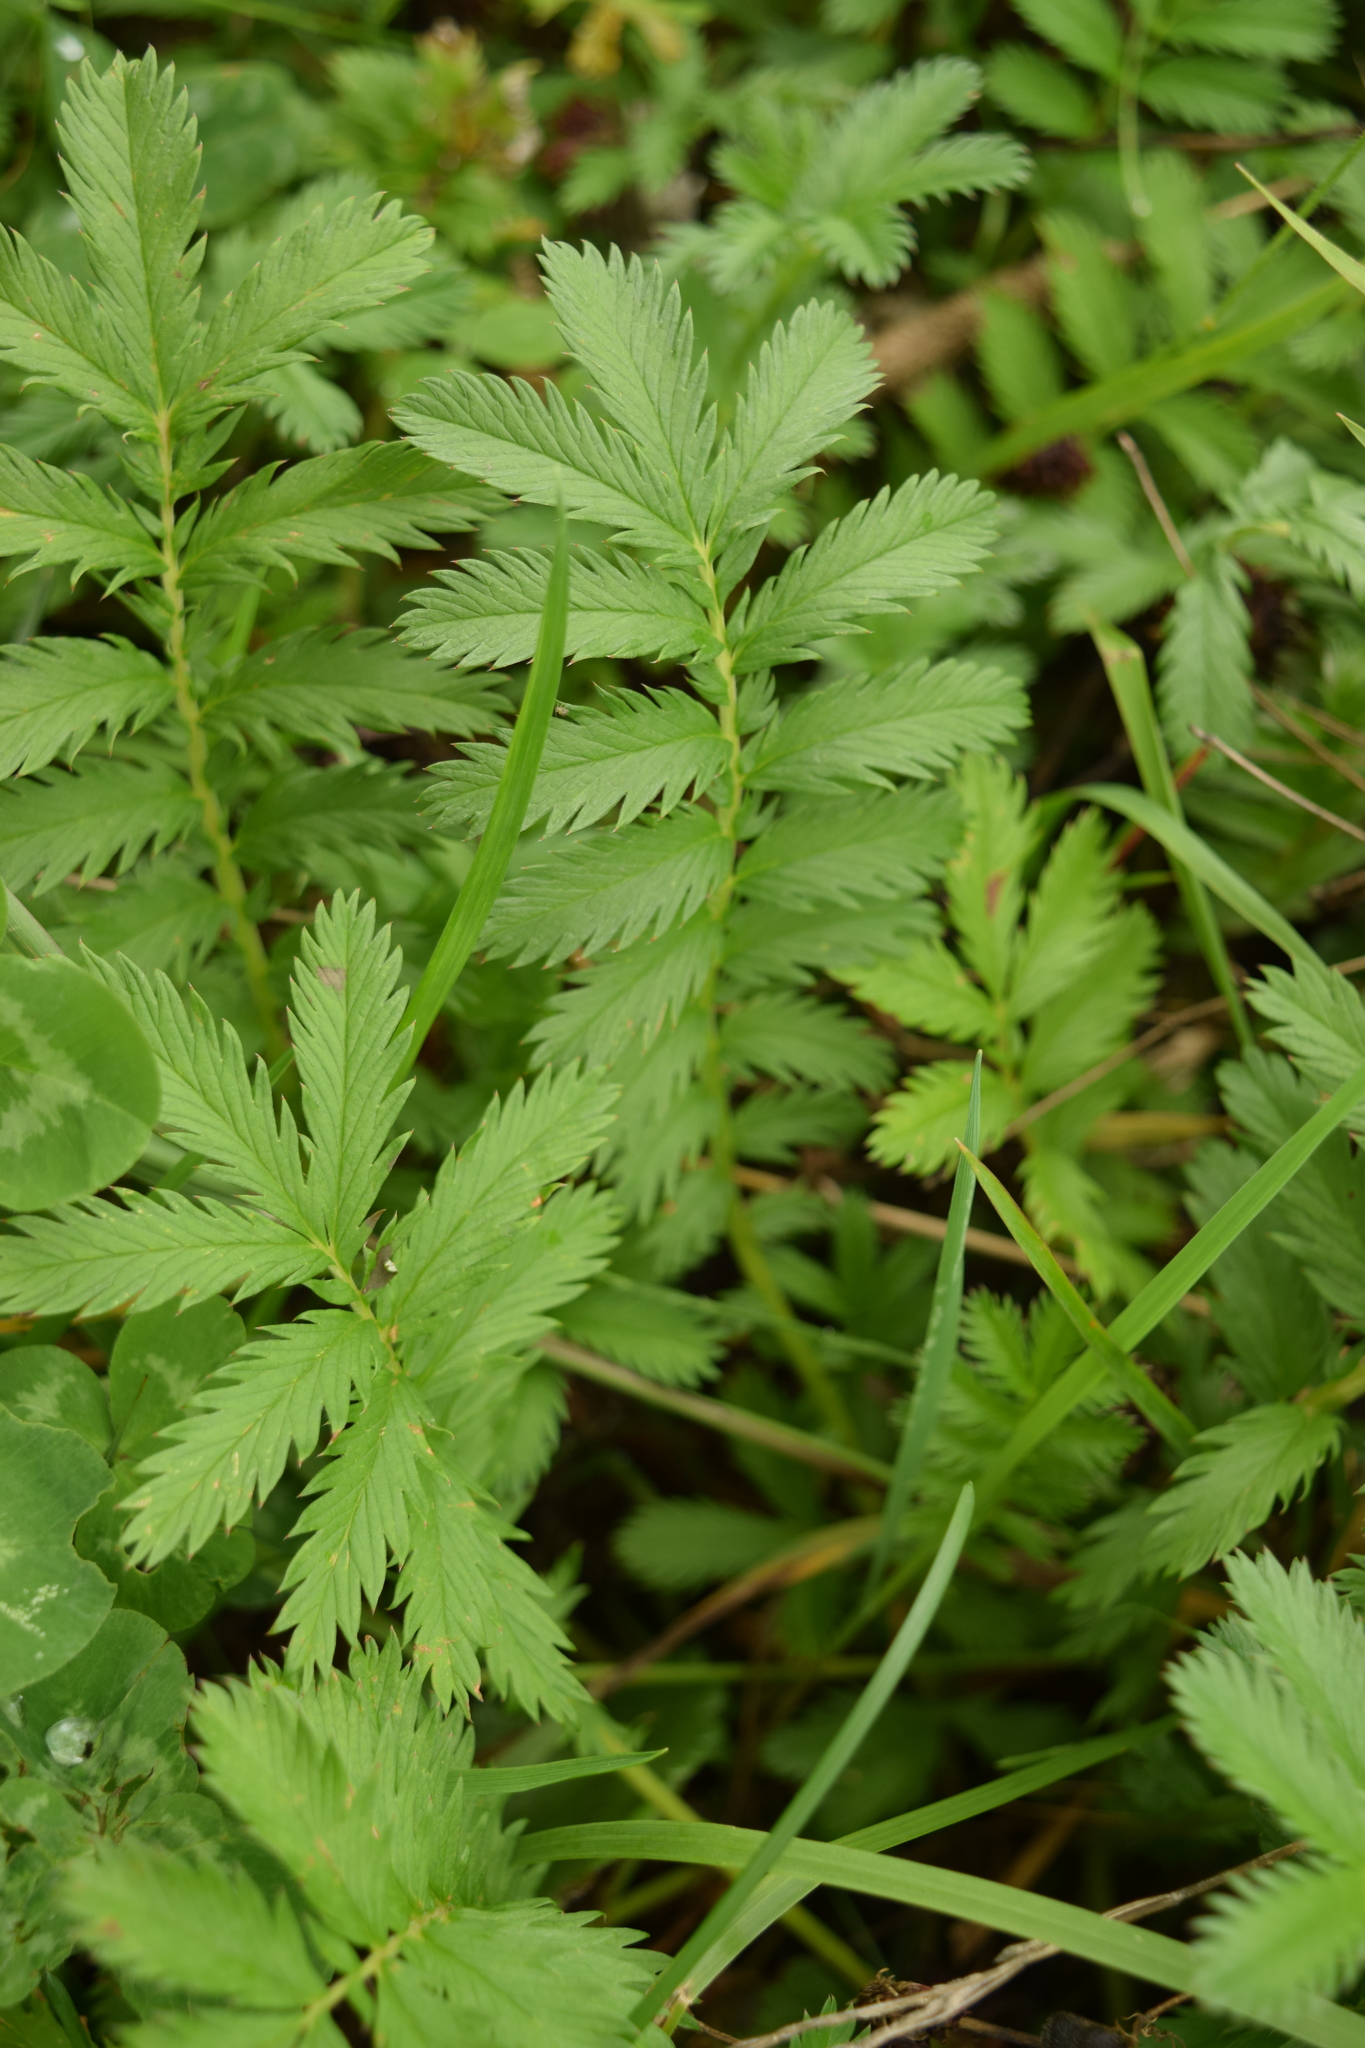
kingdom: Plantae
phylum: Tracheophyta
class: Magnoliopsida
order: Rosales
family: Rosaceae
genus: Argentina
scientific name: Argentina anserina
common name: Common silverweed
